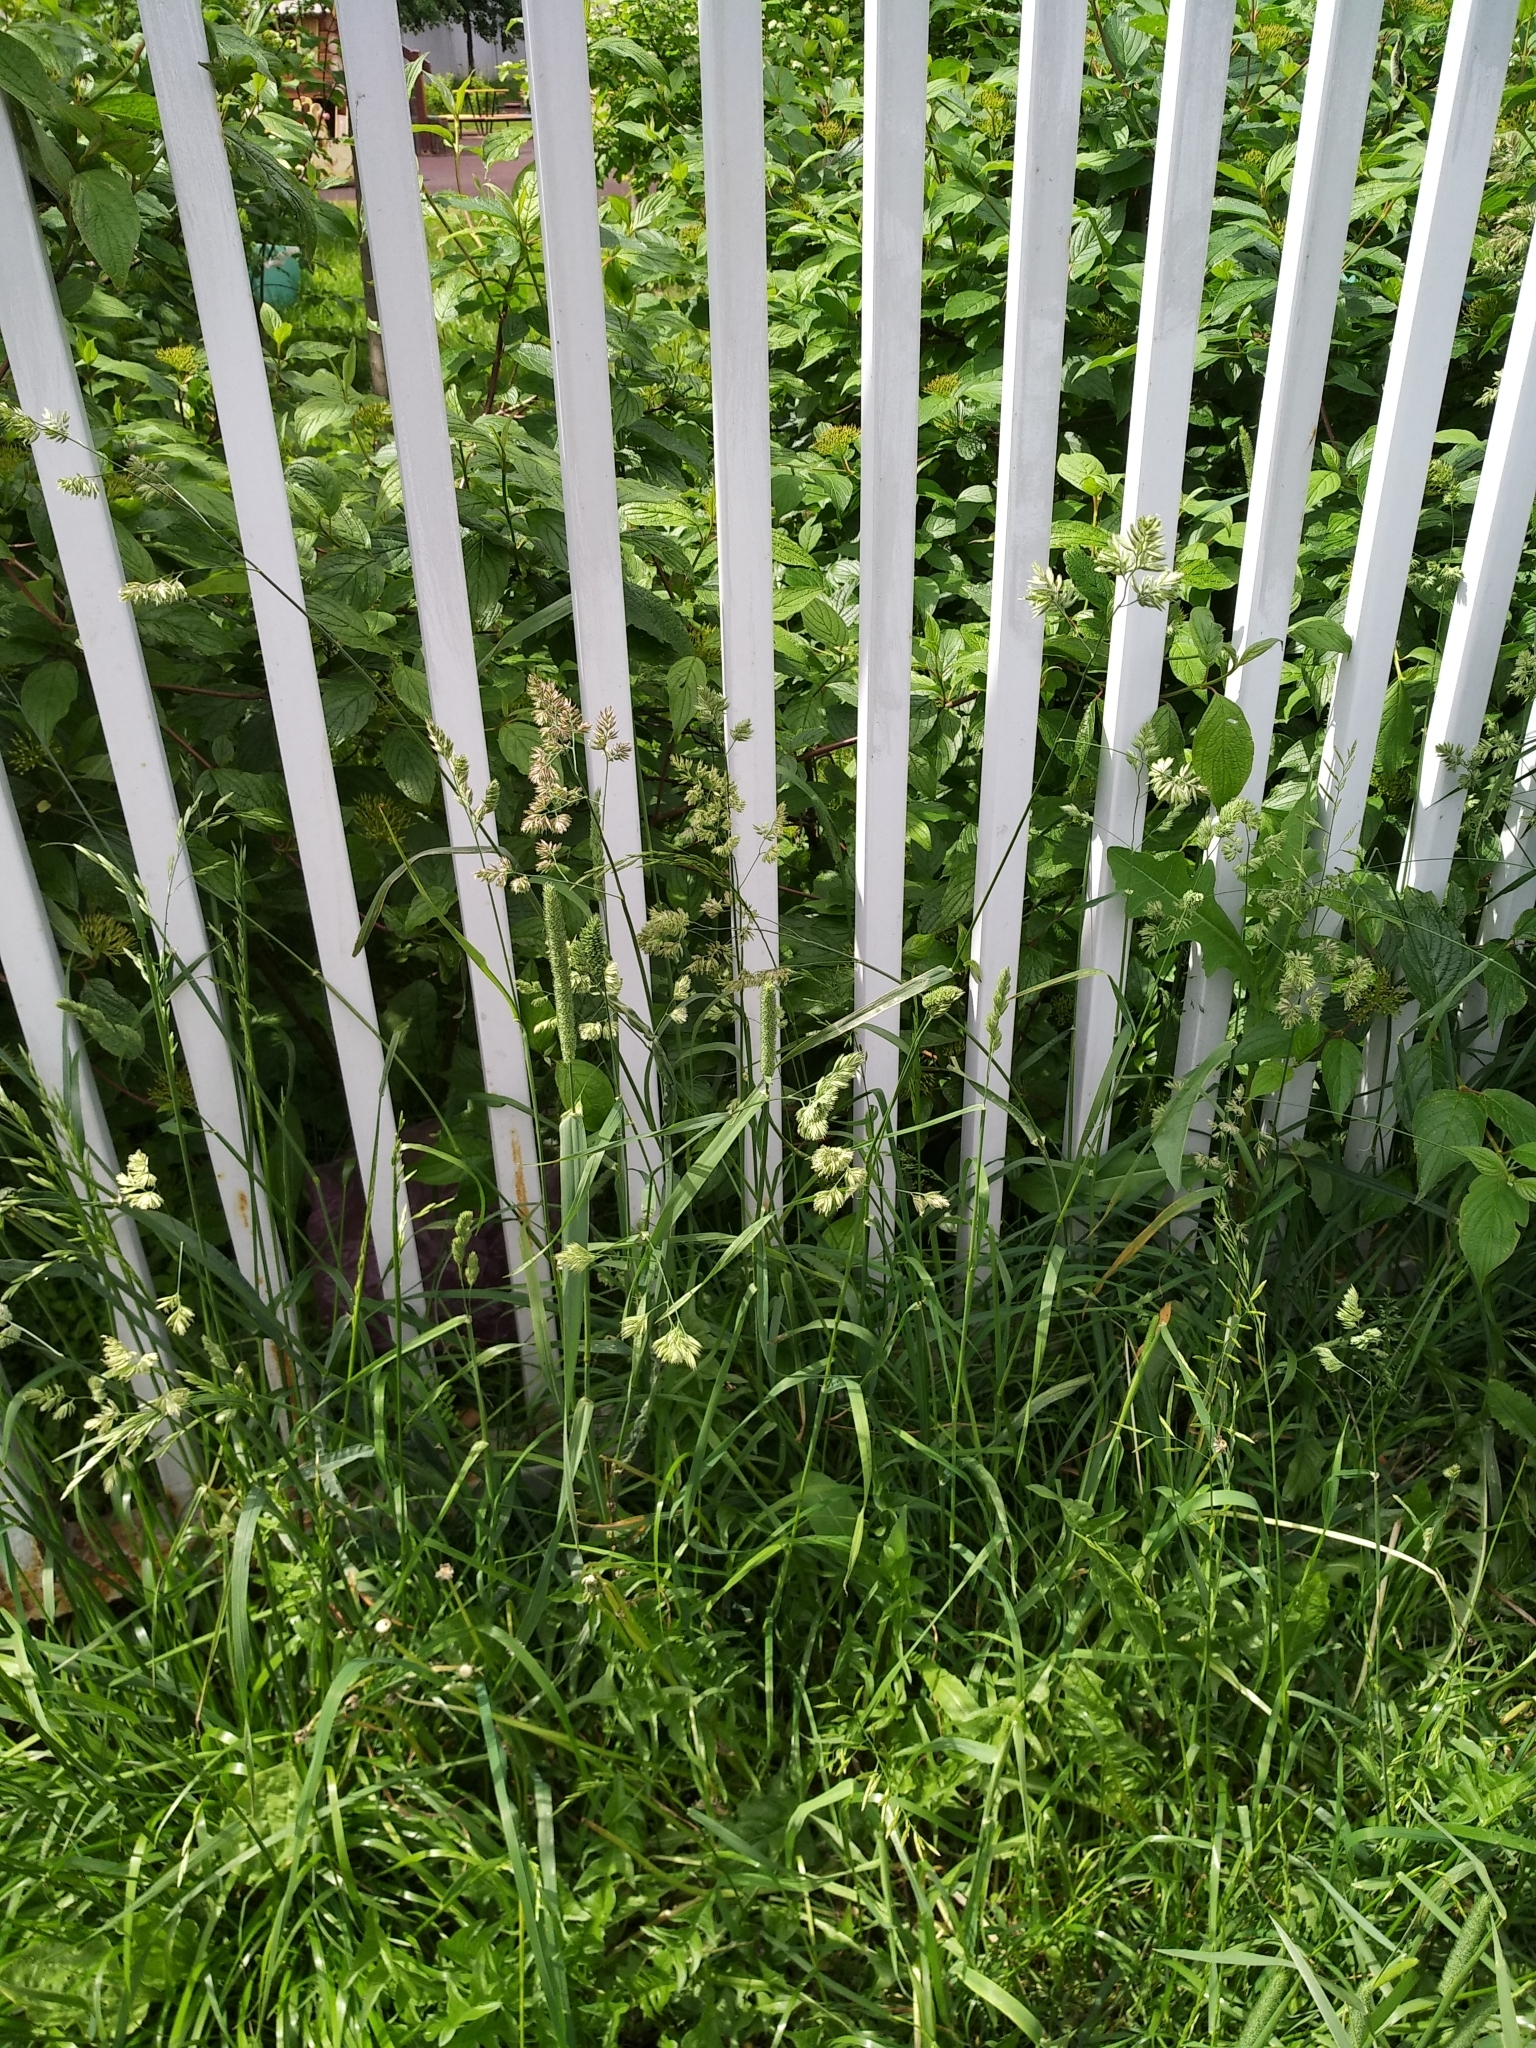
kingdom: Plantae
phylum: Tracheophyta
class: Liliopsida
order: Poales
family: Poaceae
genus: Dactylis
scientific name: Dactylis glomerata
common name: Orchardgrass
